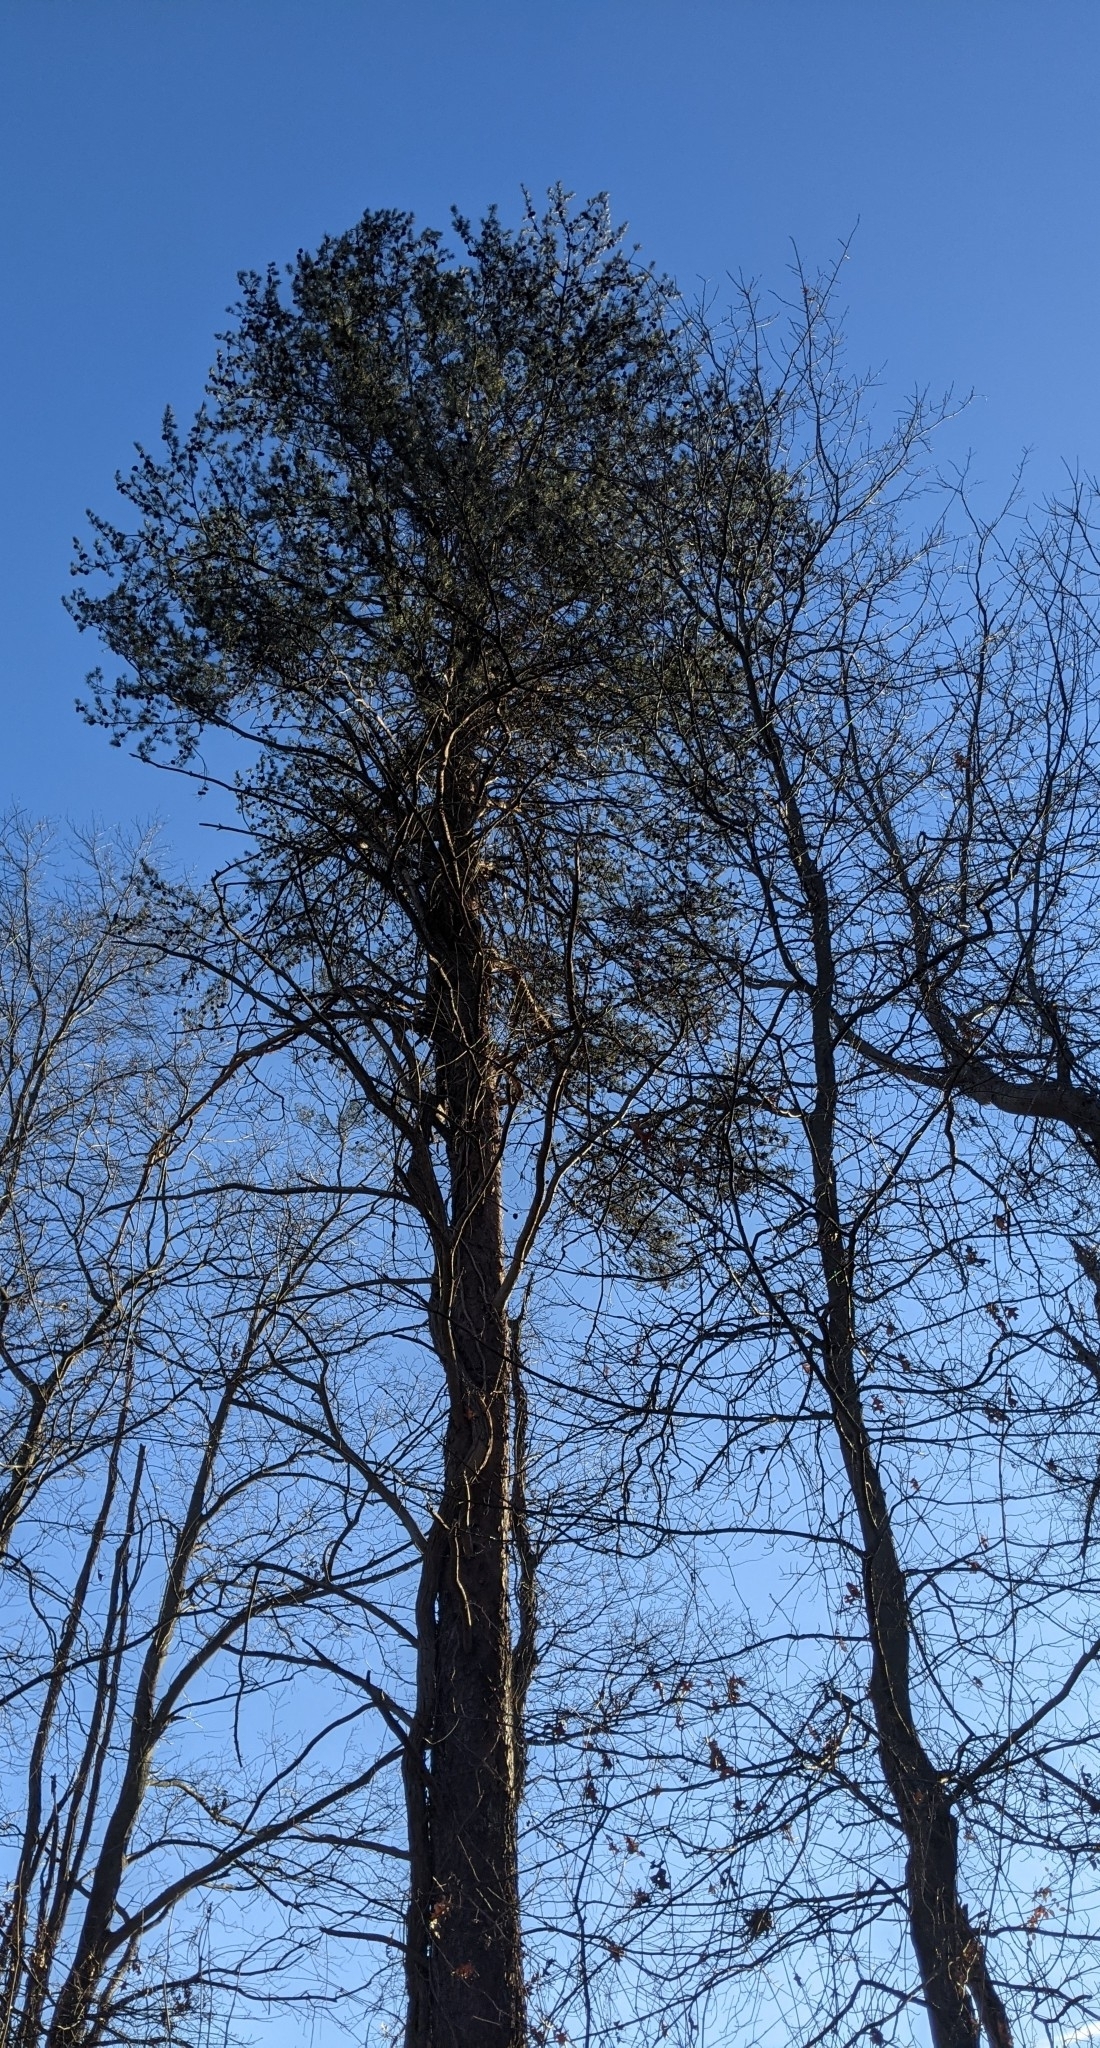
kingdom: Plantae
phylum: Tracheophyta
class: Pinopsida
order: Pinales
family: Pinaceae
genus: Pinus
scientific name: Pinus virginiana
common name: Scrub pine
